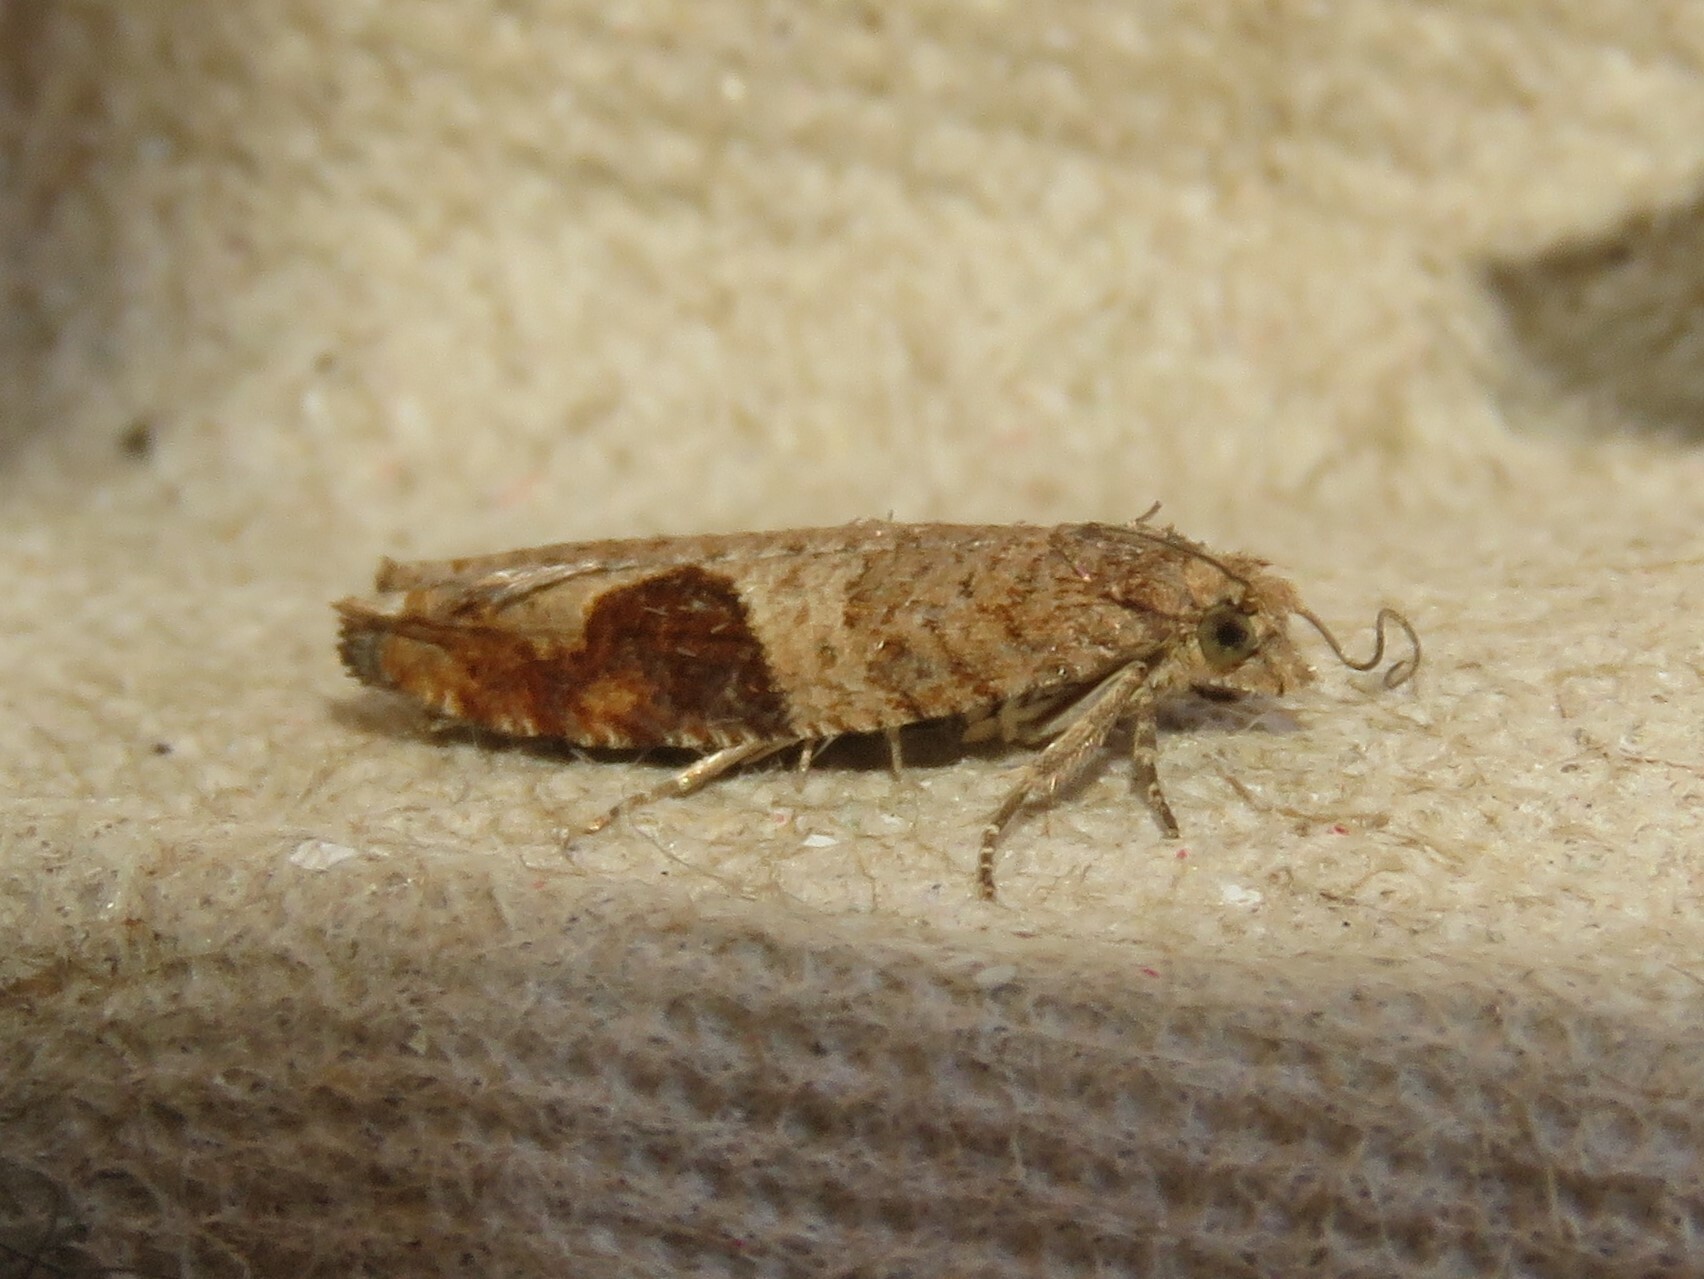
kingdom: Animalia
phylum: Arthropoda
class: Insecta
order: Lepidoptera
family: Tortricidae
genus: Pseudexentera
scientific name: Pseudexentera virginiana
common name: Virginia pseudexentera moth
